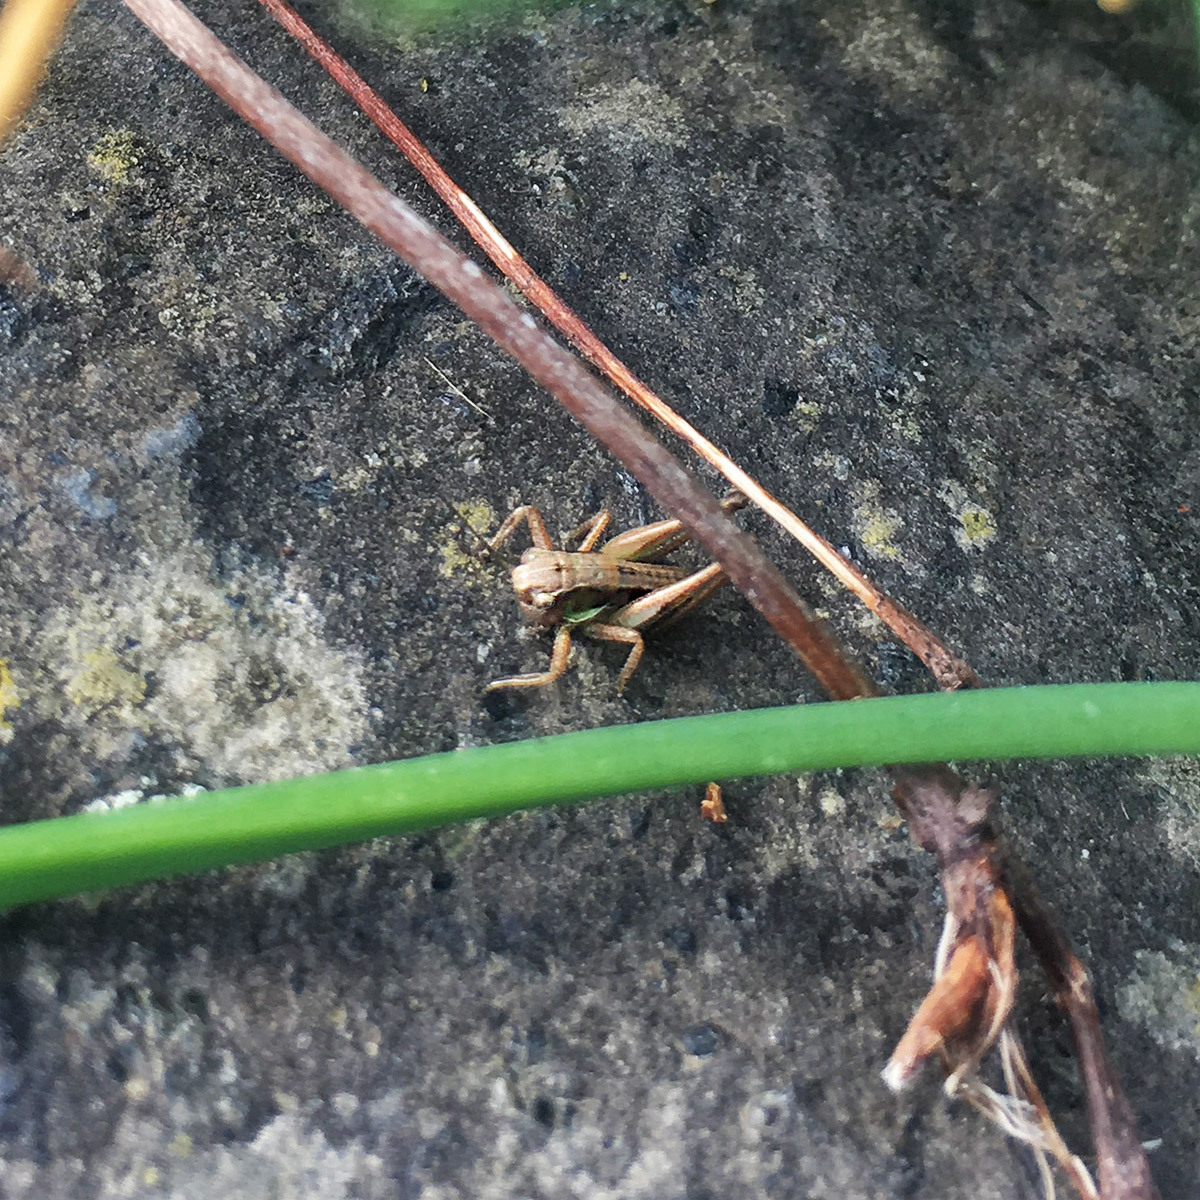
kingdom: Animalia
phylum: Arthropoda
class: Insecta
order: Orthoptera
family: Tettigoniidae
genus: Roeseliana
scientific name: Roeseliana roeselii
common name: Roesel's bush cricket
